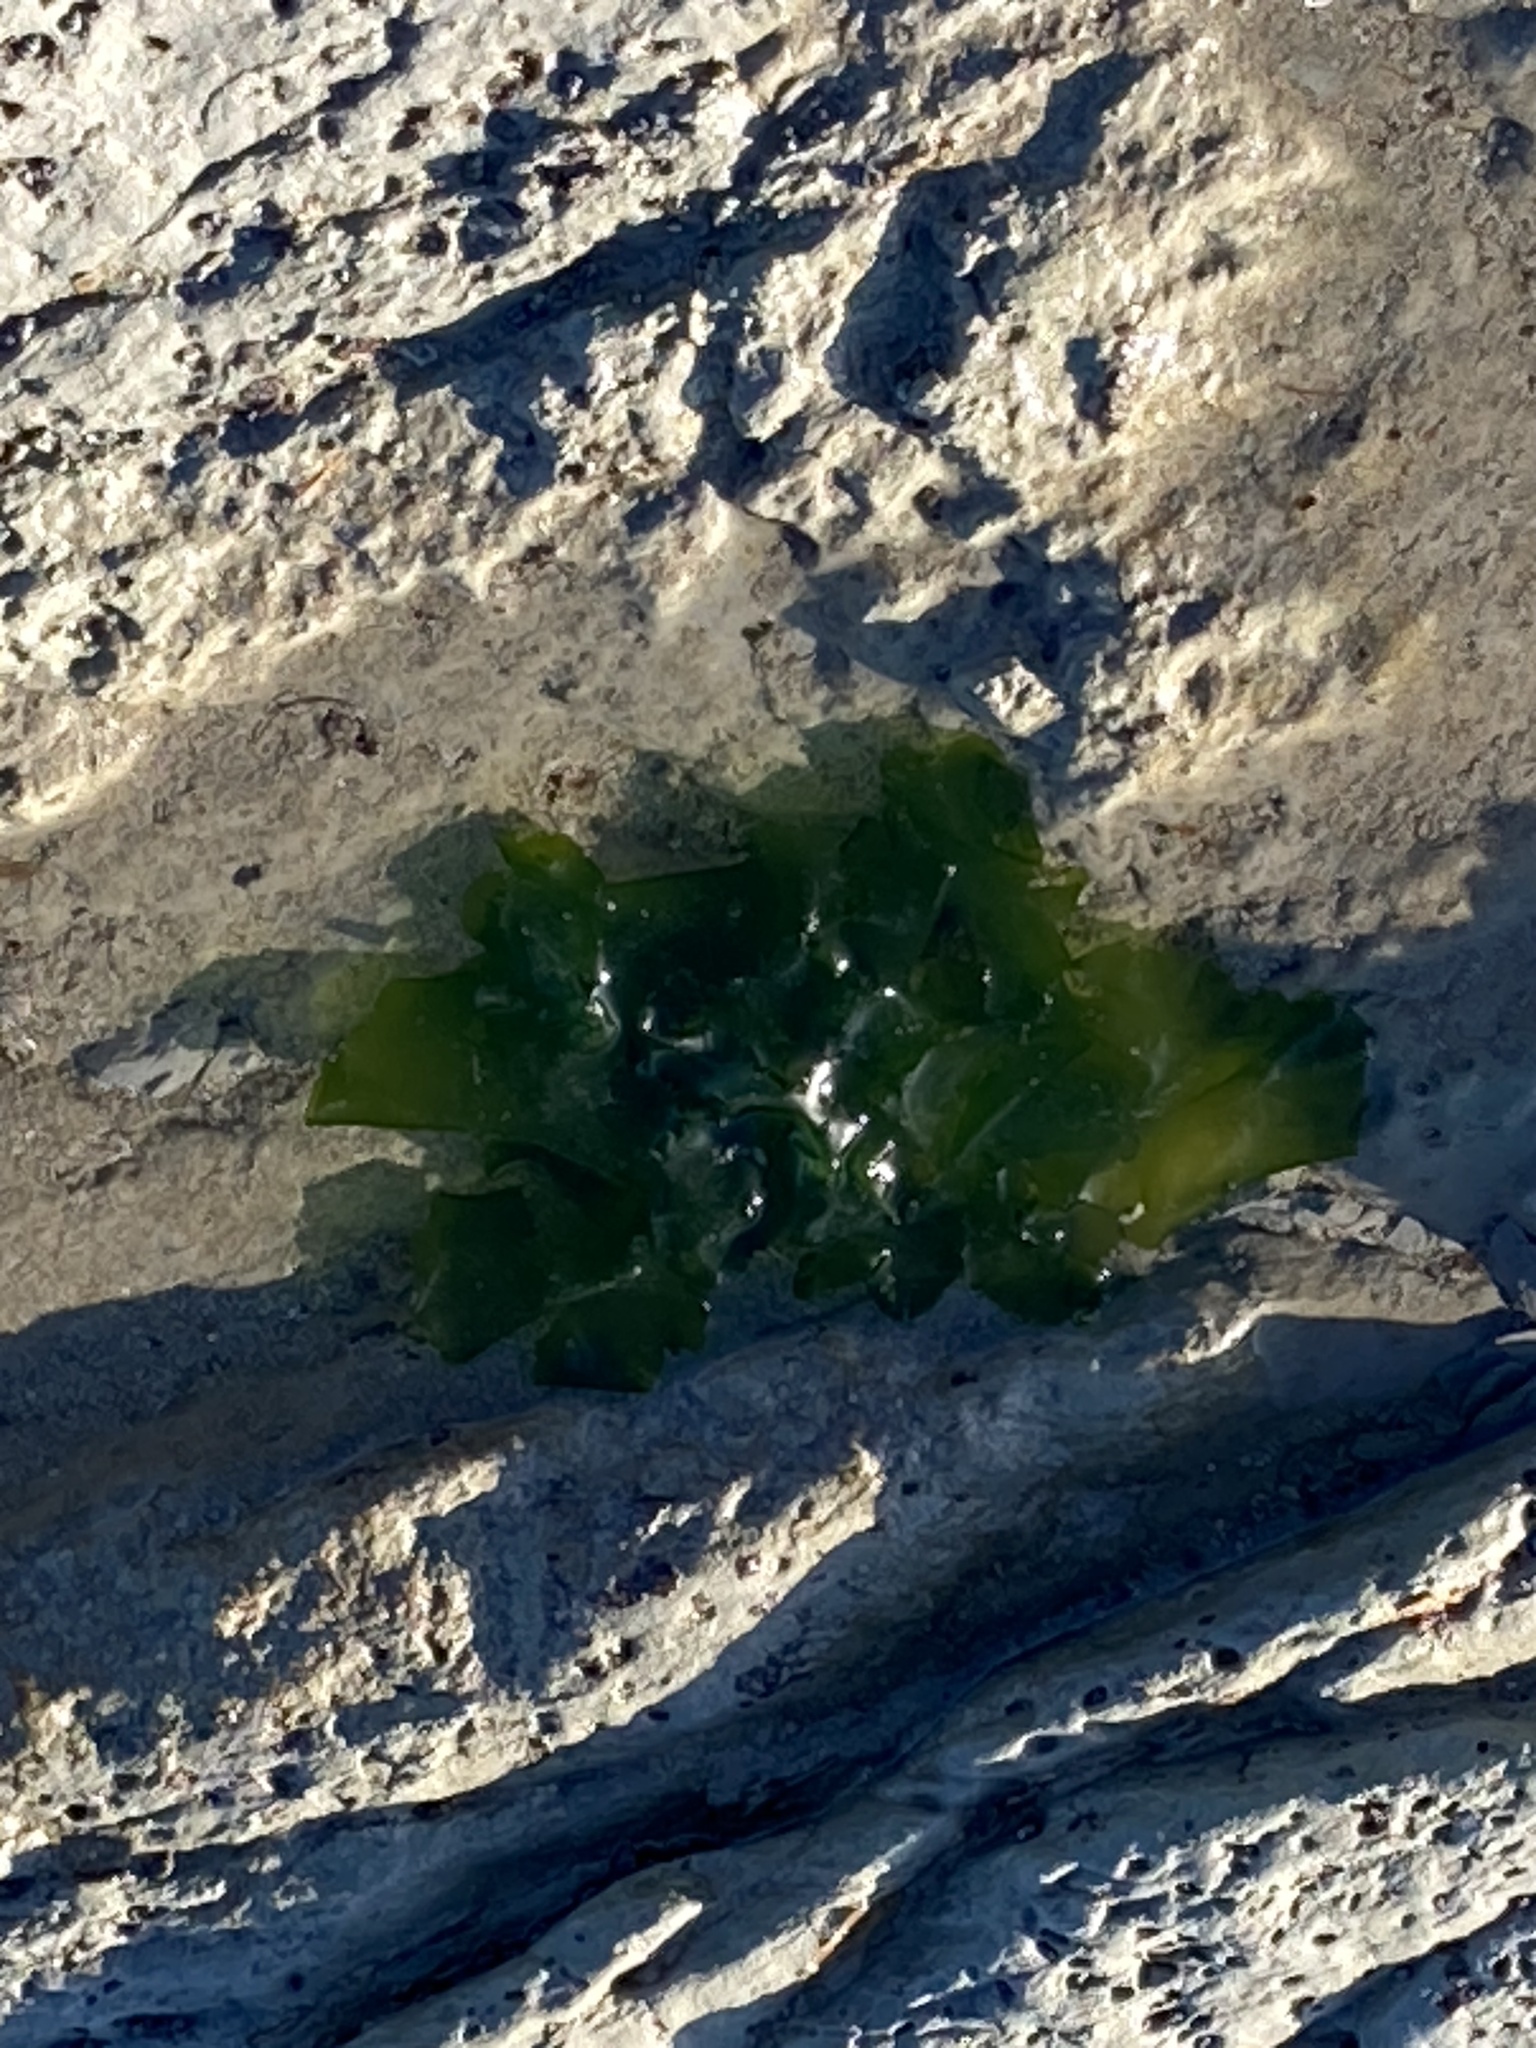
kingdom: Plantae
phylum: Chlorophyta
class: Ulvophyceae
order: Ulvales
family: Ulvaceae
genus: Ulva
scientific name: Ulva
